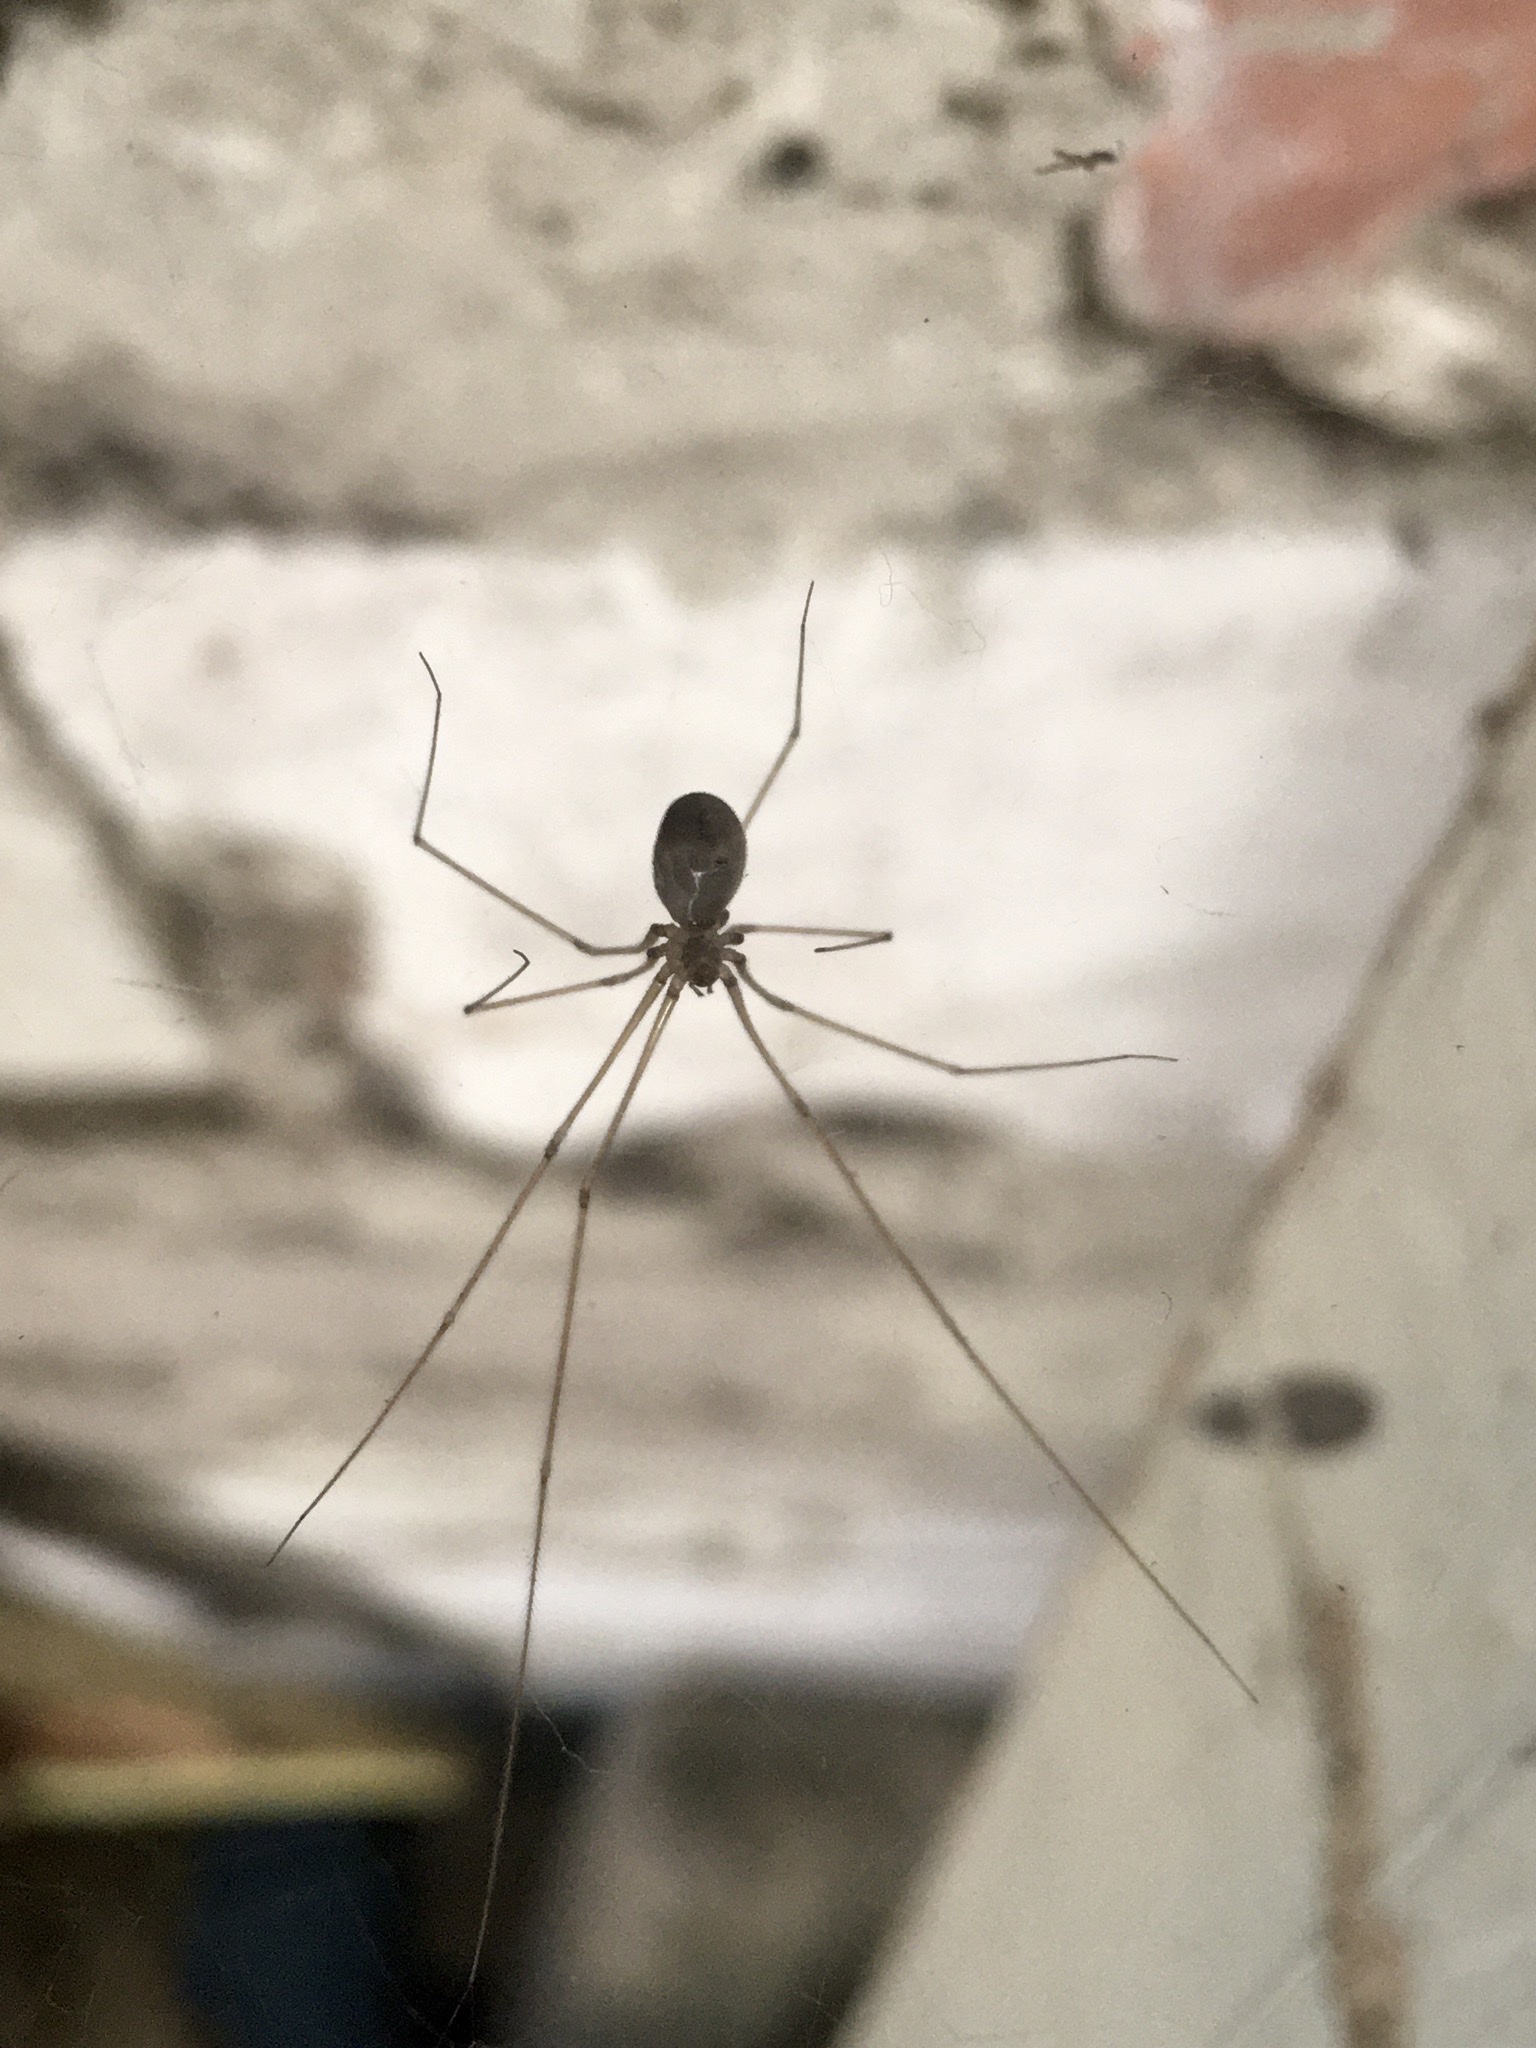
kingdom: Animalia
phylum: Arthropoda
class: Arachnida
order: Araneae
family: Pholcidae
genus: Pholcus
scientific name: Pholcus phalangioides
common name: Longbodied cellar spider
